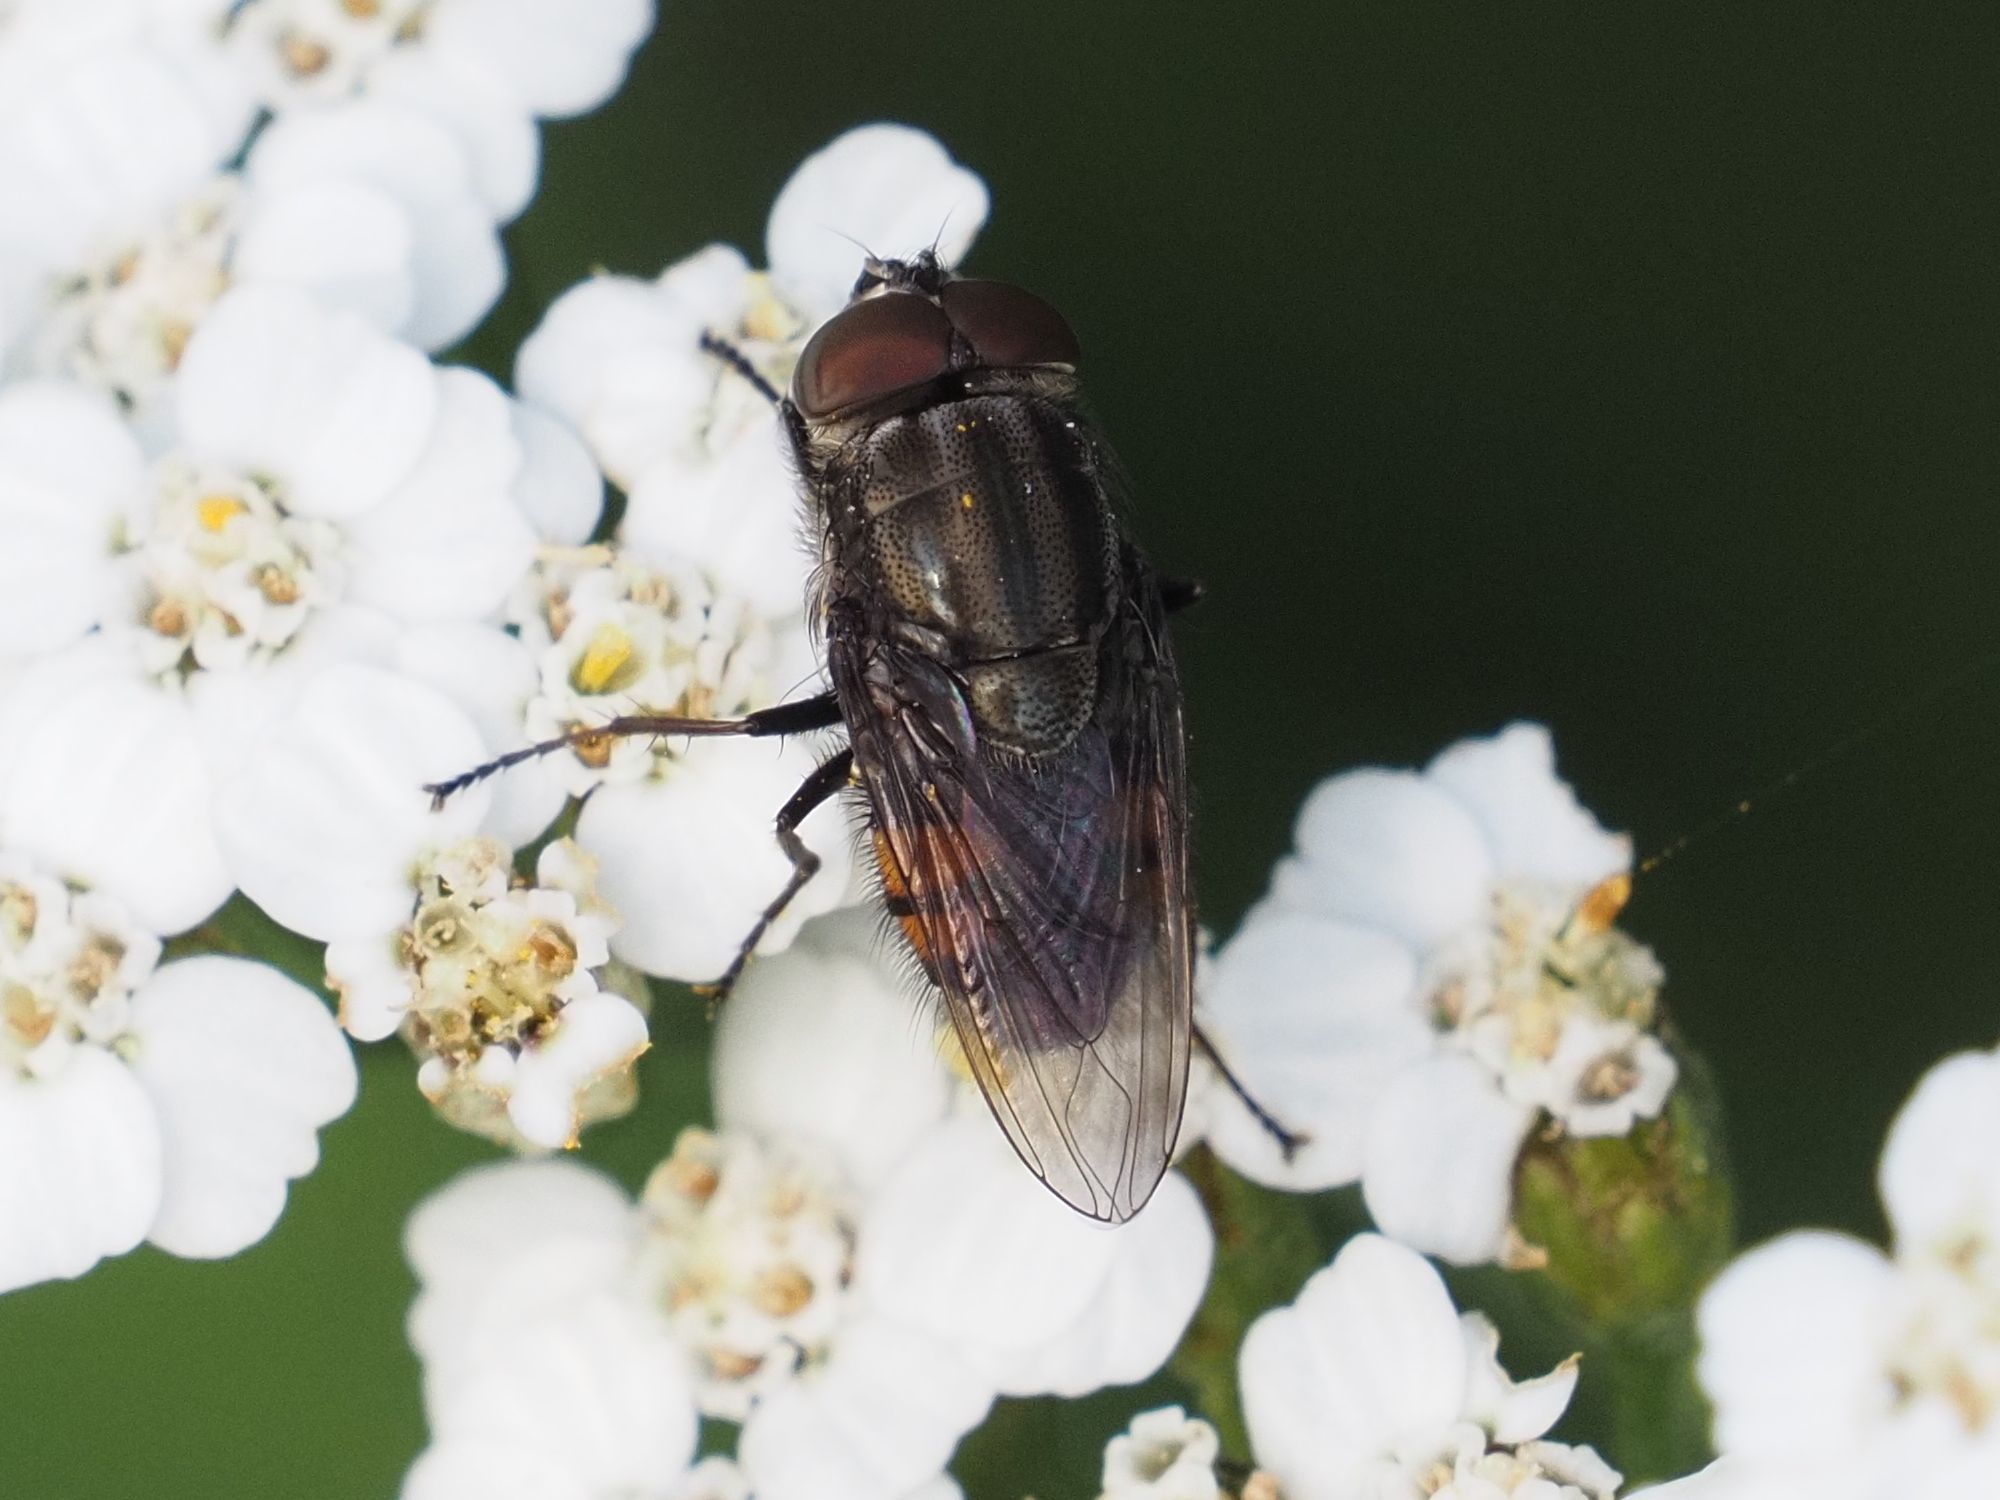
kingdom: Animalia
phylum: Arthropoda
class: Insecta
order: Diptera
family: Calliphoridae
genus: Stomorhina
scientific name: Stomorhina lunata
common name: Locust blowfly
